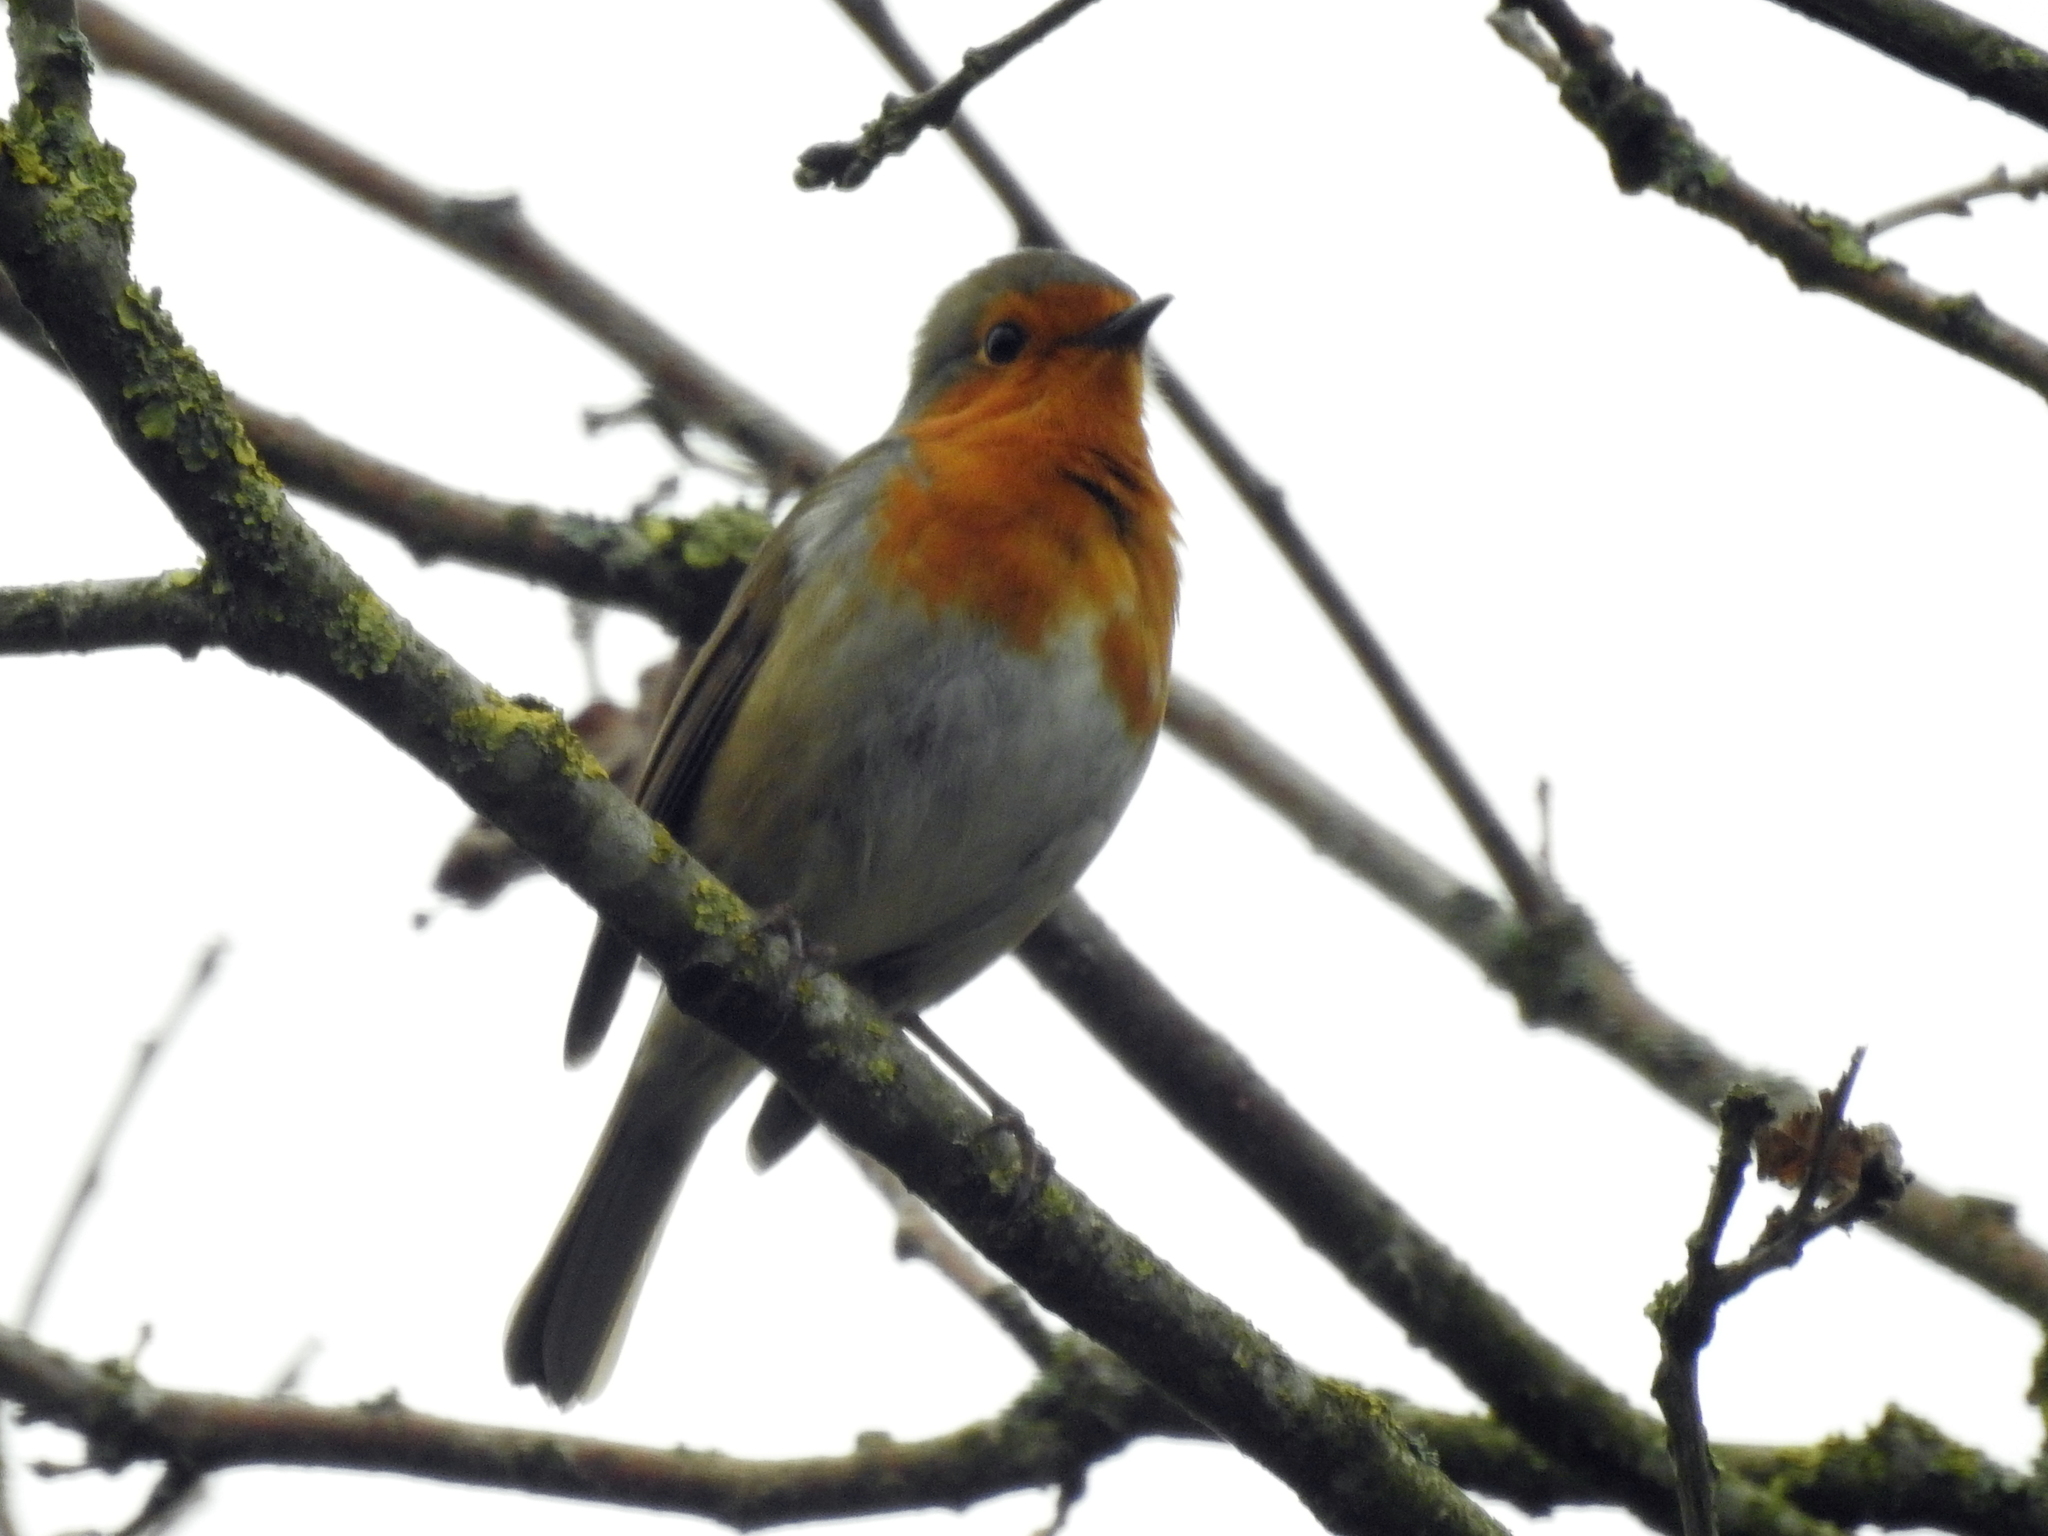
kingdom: Animalia
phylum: Chordata
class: Aves
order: Passeriformes
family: Muscicapidae
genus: Erithacus
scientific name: Erithacus rubecula
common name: European robin
